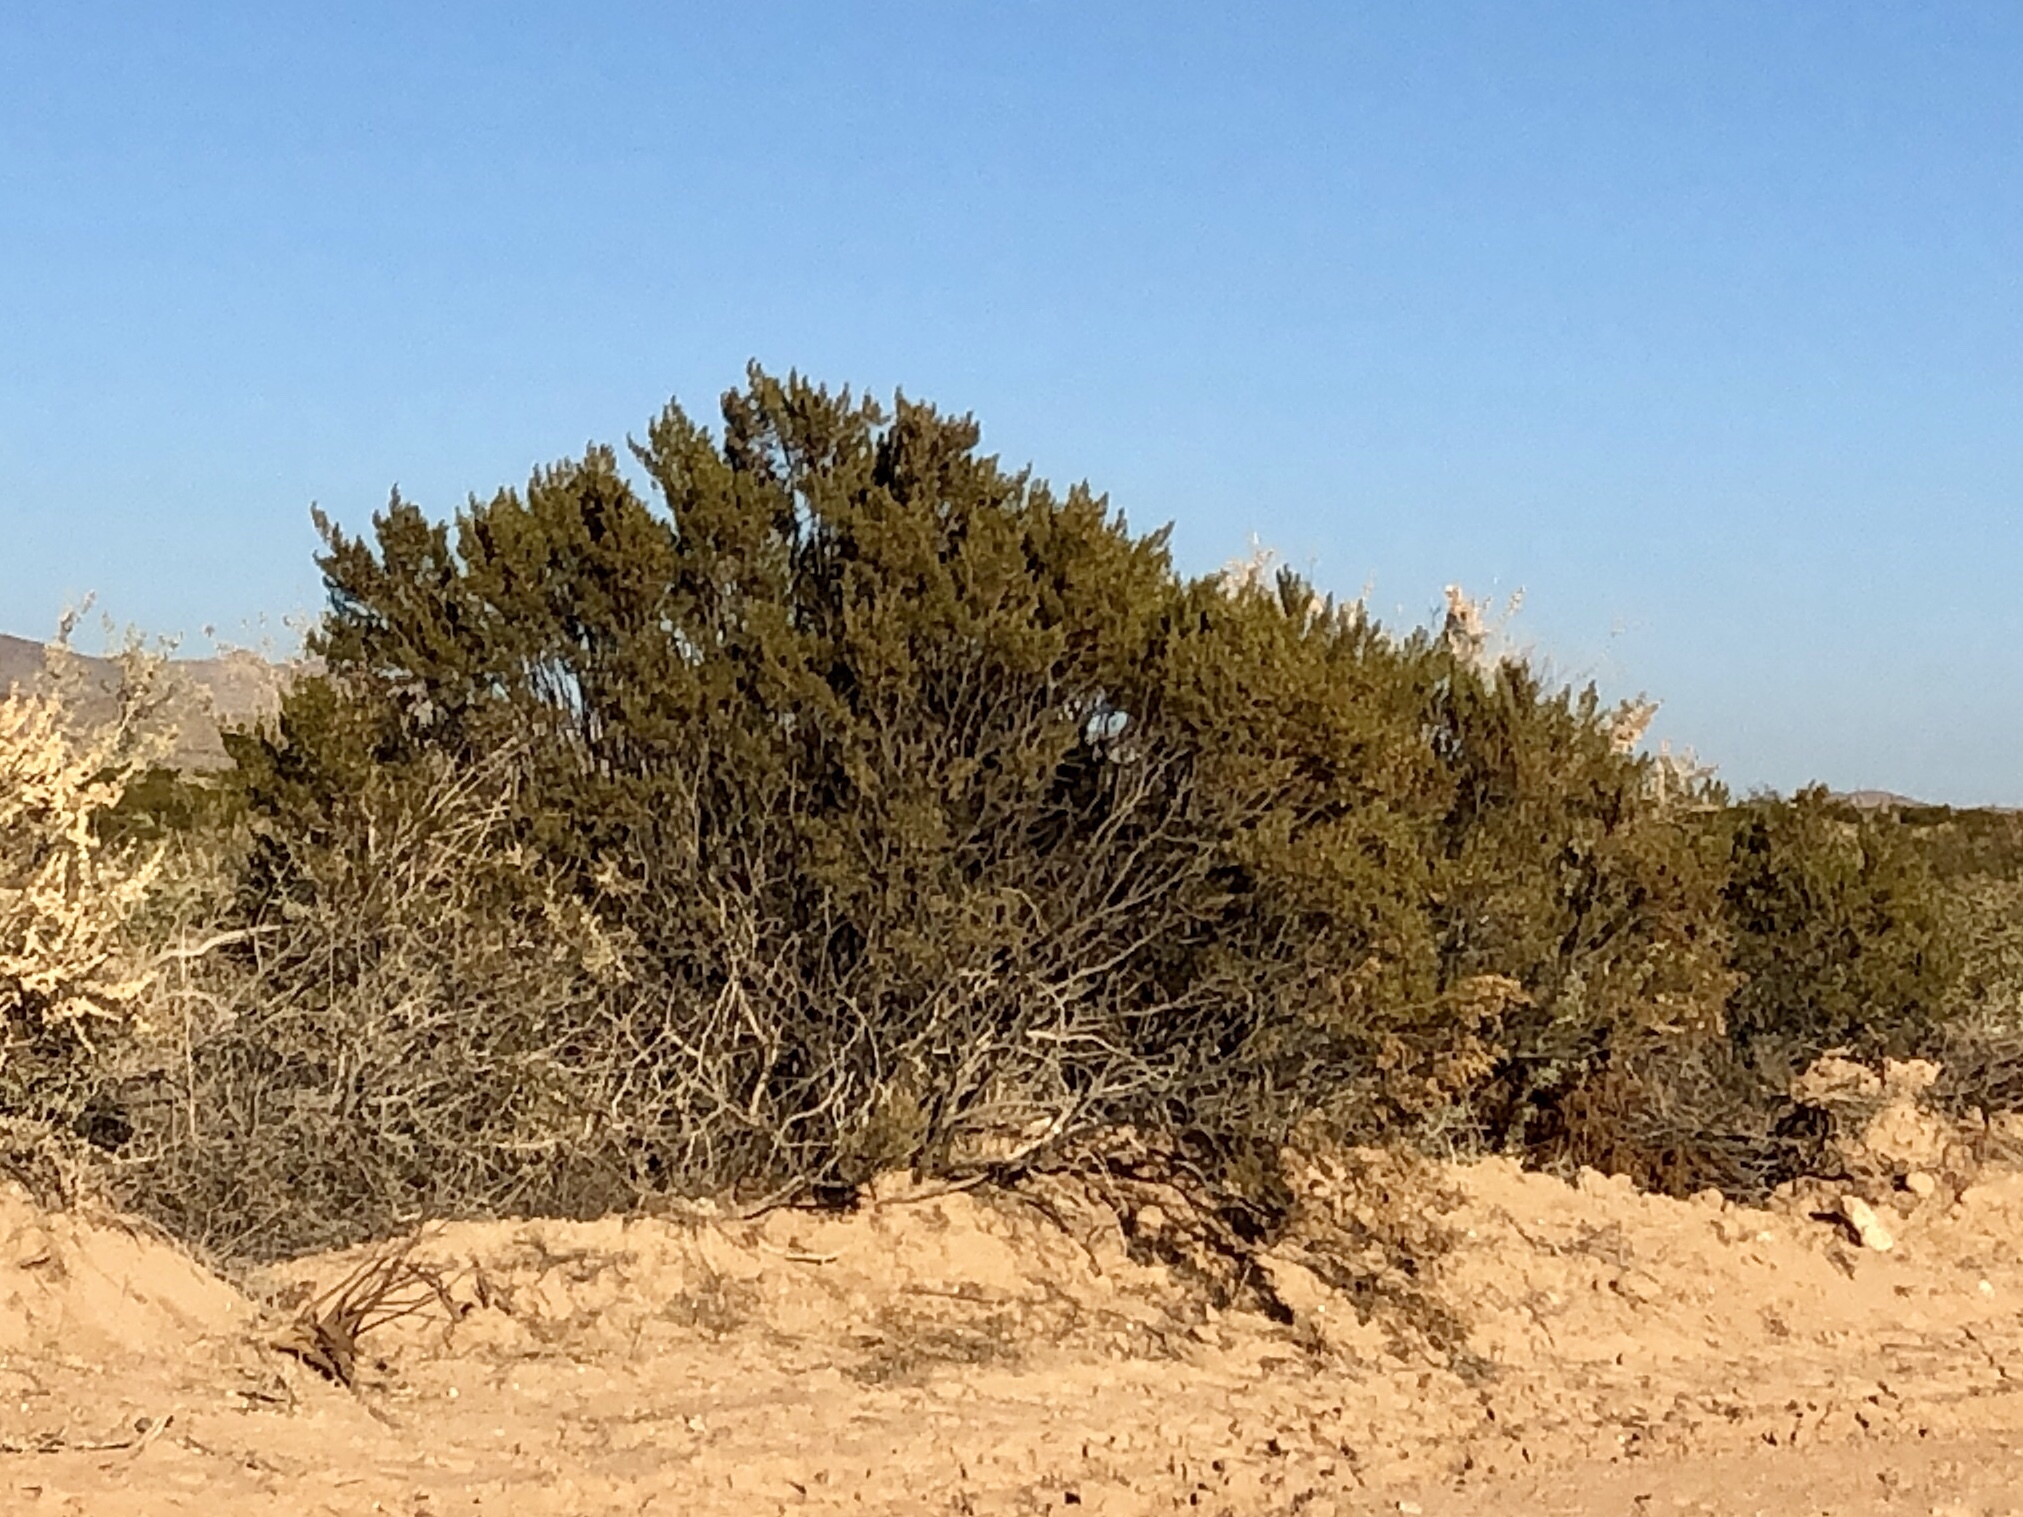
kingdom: Plantae
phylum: Tracheophyta
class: Magnoliopsida
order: Zygophyllales
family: Zygophyllaceae
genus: Larrea
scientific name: Larrea tridentata
